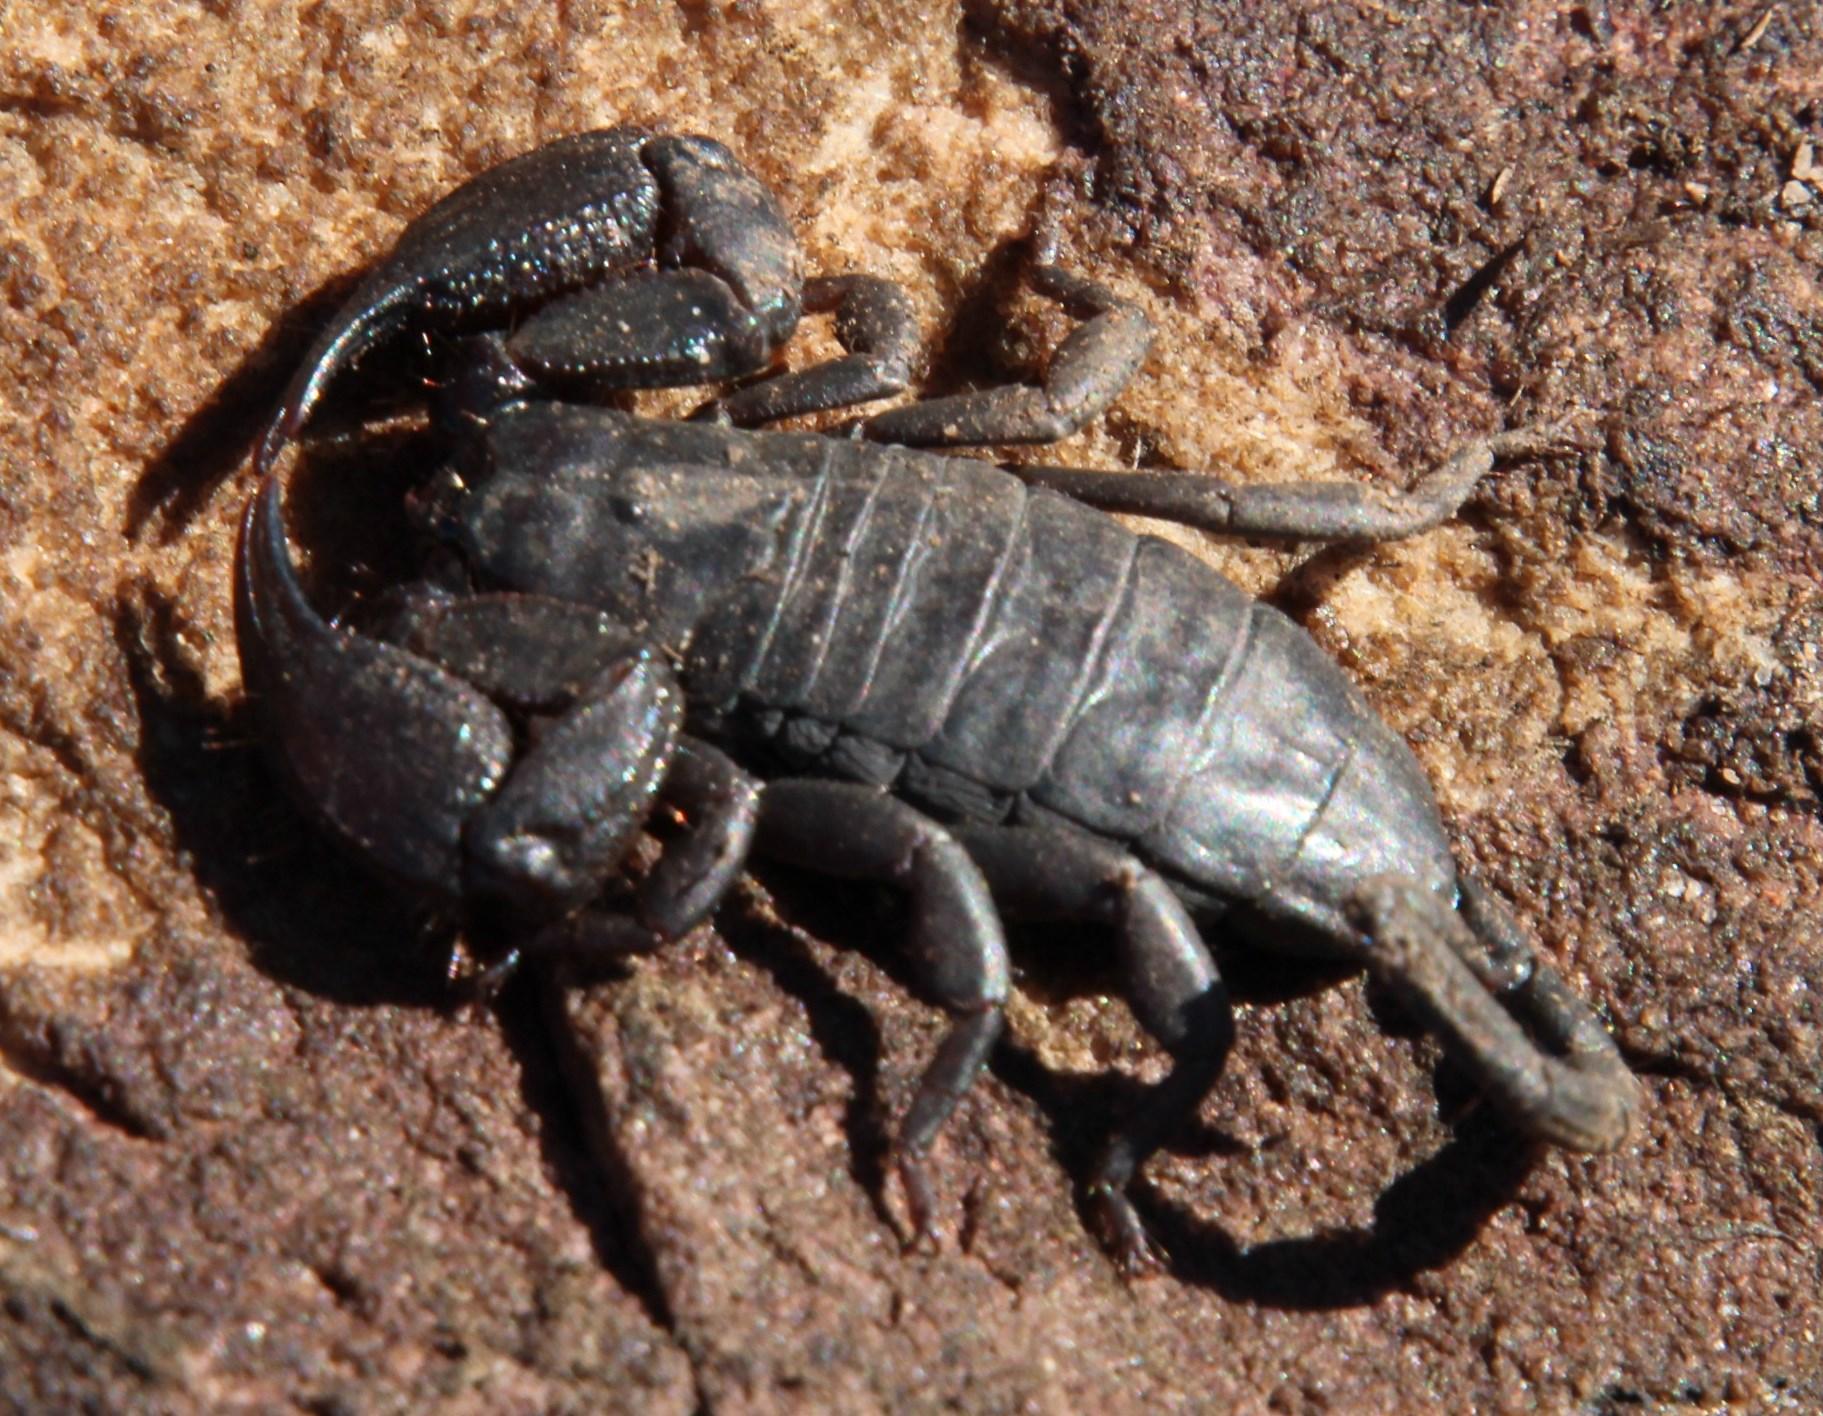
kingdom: Animalia
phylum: Arthropoda
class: Arachnida
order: Scorpiones
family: Hormuridae
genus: Opisthacanthus
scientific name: Opisthacanthus capensis
